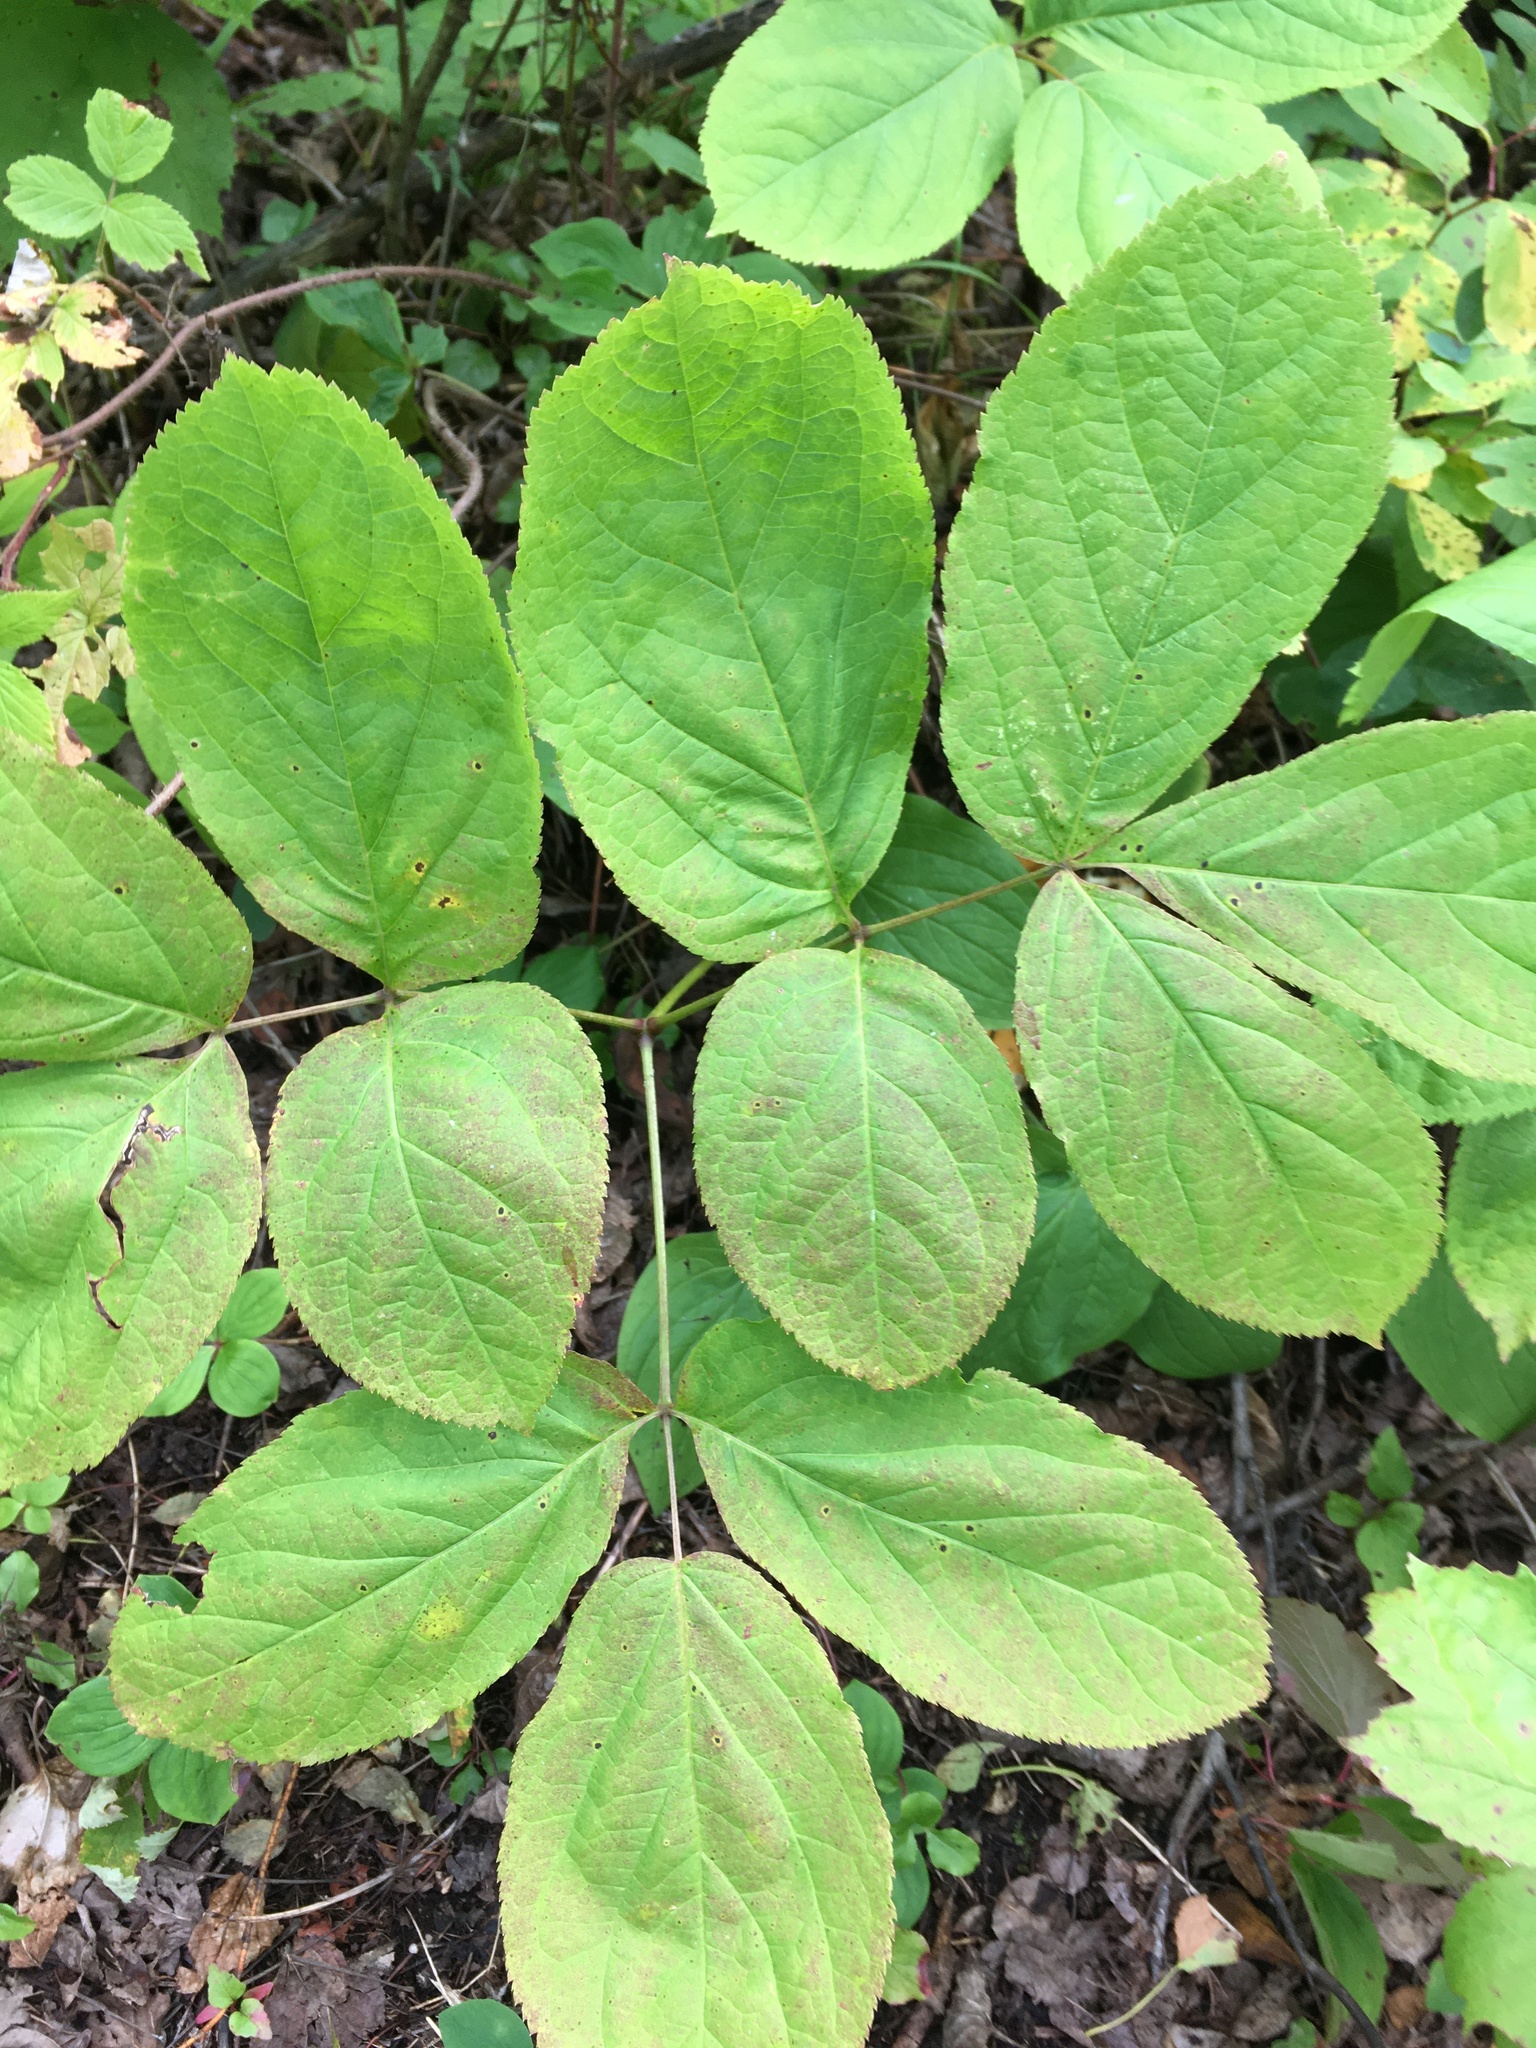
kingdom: Plantae
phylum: Tracheophyta
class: Magnoliopsida
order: Apiales
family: Araliaceae
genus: Aralia
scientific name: Aralia nudicaulis
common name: Wild sarsaparilla
